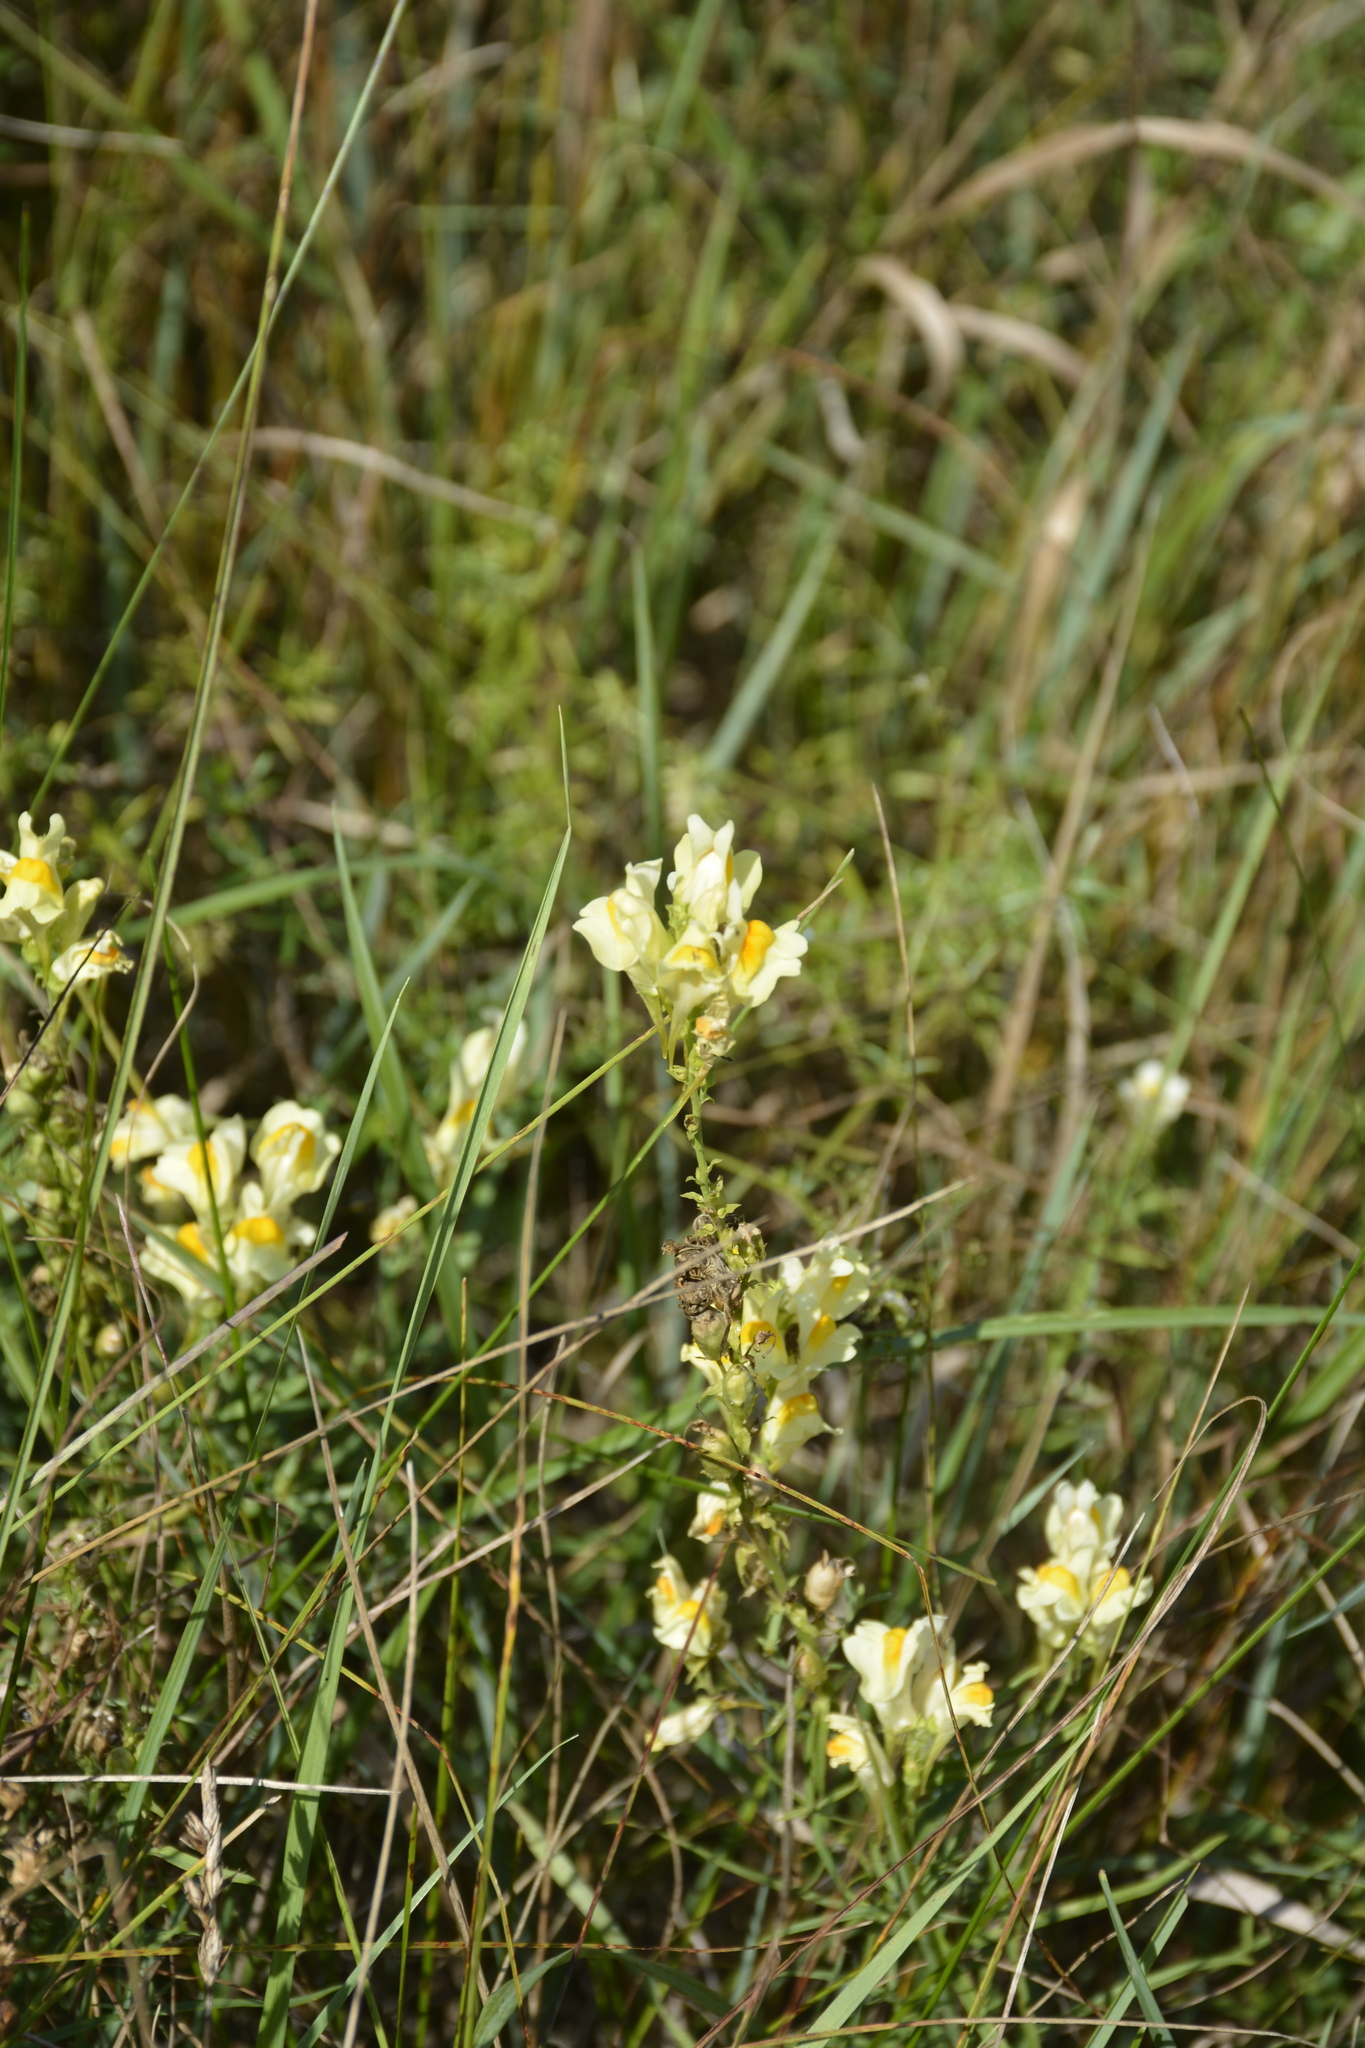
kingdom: Plantae
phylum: Tracheophyta
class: Magnoliopsida
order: Lamiales
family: Plantaginaceae
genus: Linaria
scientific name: Linaria vulgaris
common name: Butter and eggs
